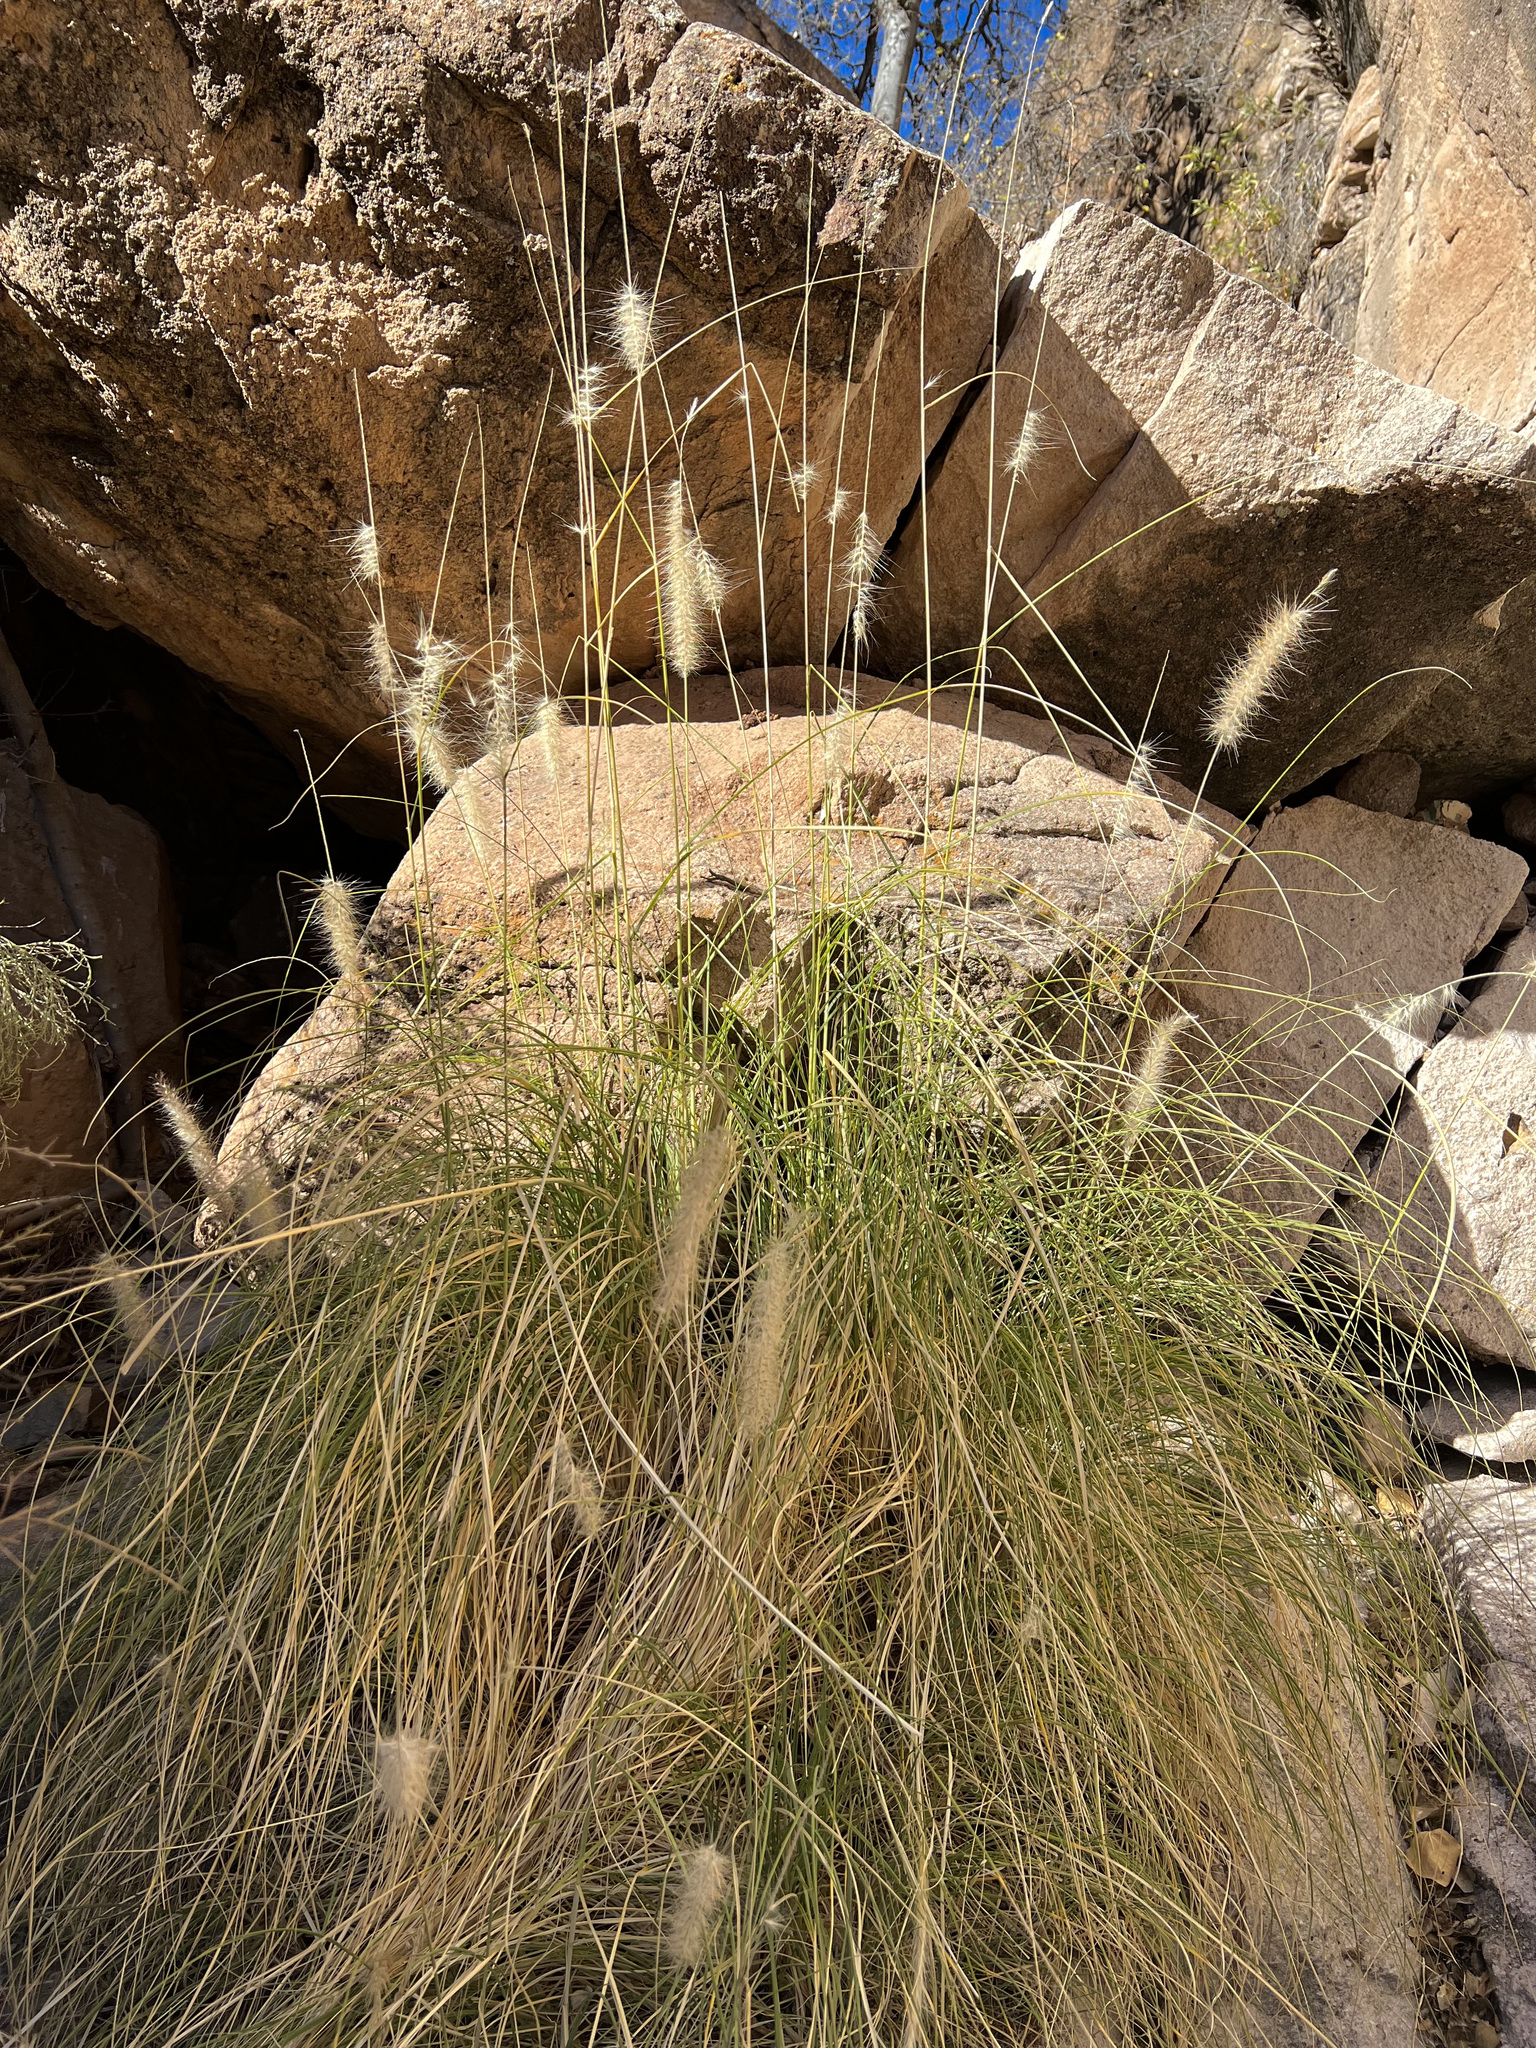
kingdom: Plantae
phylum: Tracheophyta
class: Liliopsida
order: Poales
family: Poaceae
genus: Cenchrus
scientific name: Cenchrus setaceus
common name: Crimson fountaingrass
